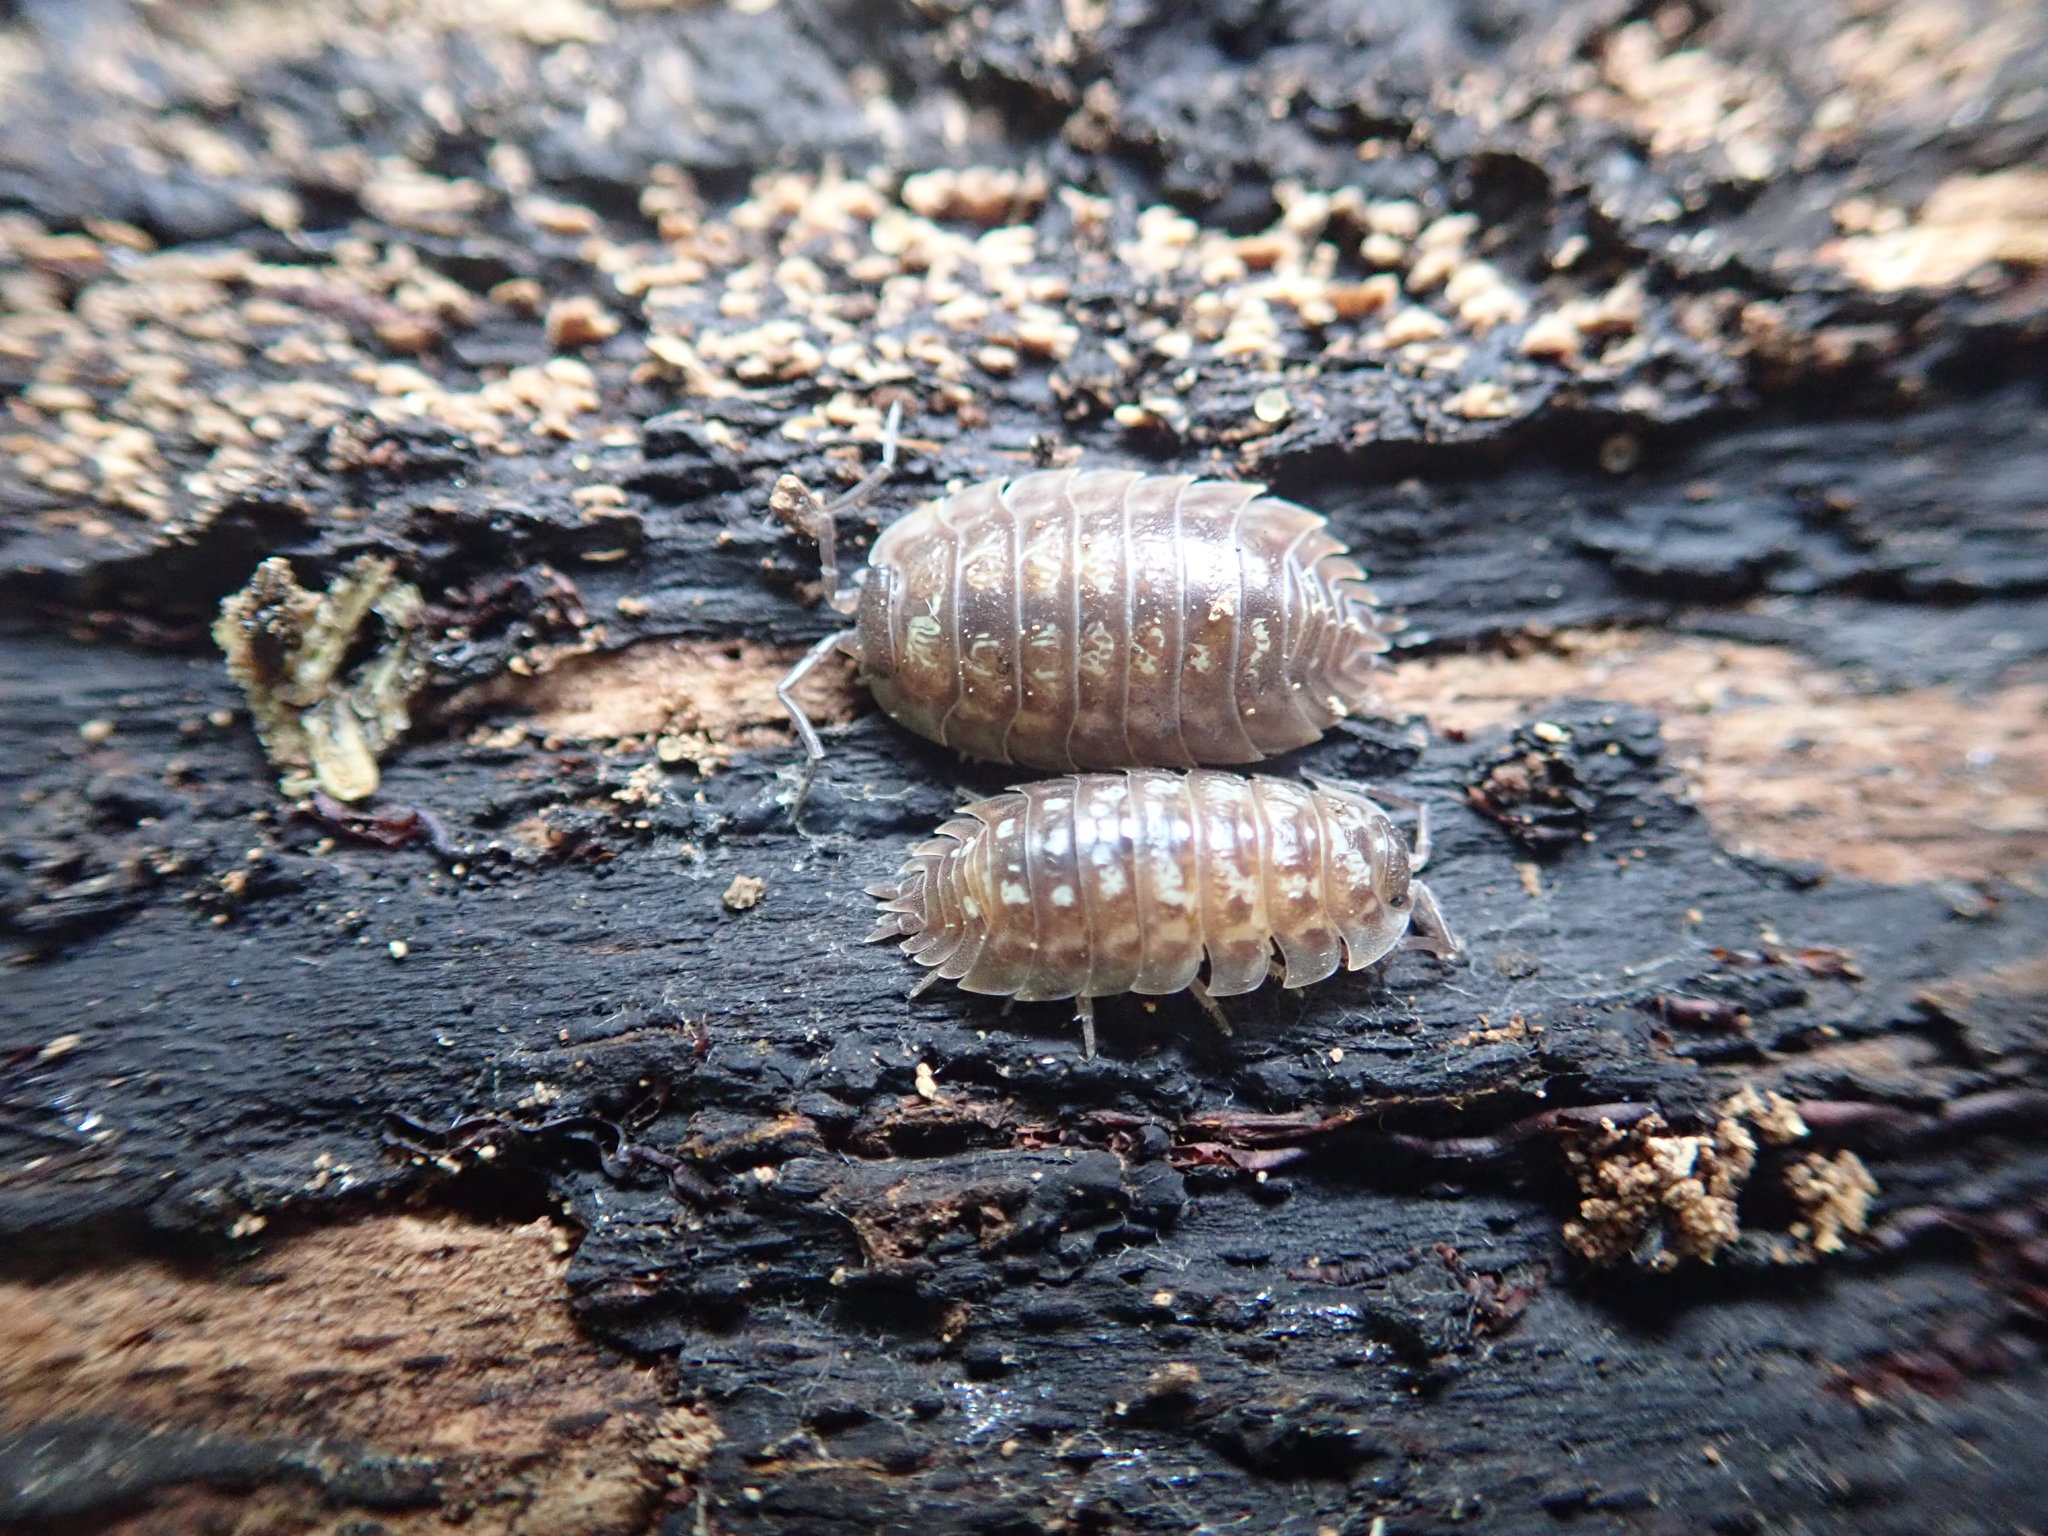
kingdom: Animalia
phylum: Arthropoda
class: Malacostraca
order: Isopoda
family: Oniscidae
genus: Oniscus
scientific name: Oniscus asellus
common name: Common shiny woodlouse
